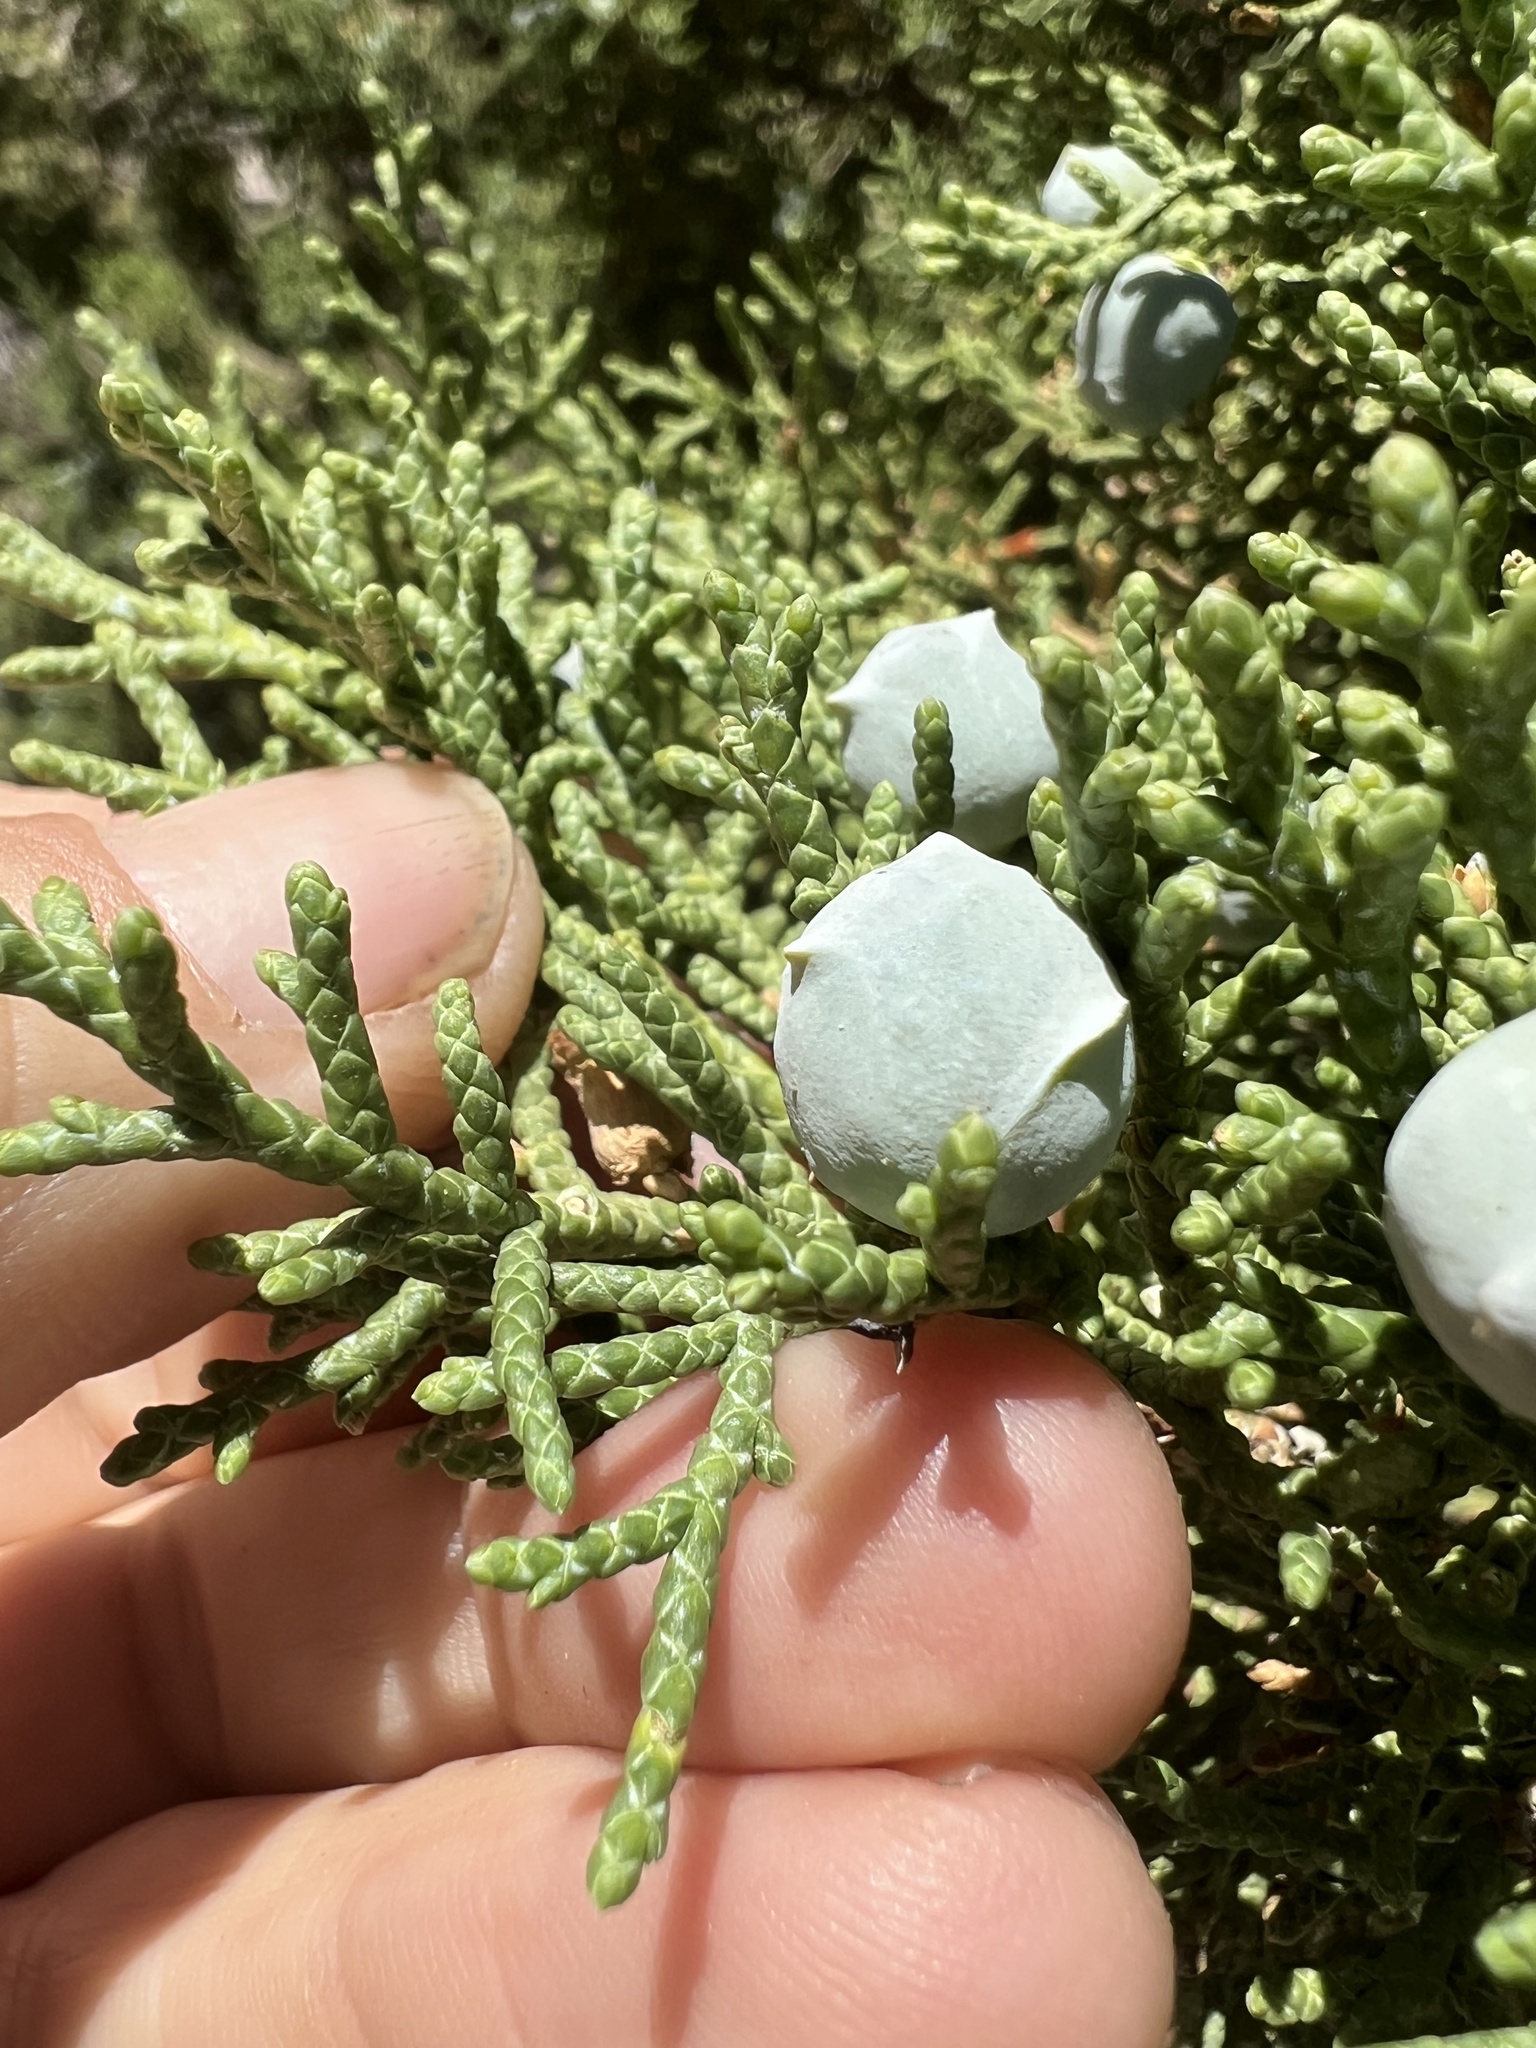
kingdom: Plantae
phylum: Tracheophyta
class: Pinopsida
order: Pinales
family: Cupressaceae
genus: Juniperus
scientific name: Juniperus osteosperma
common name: Utah juniper
